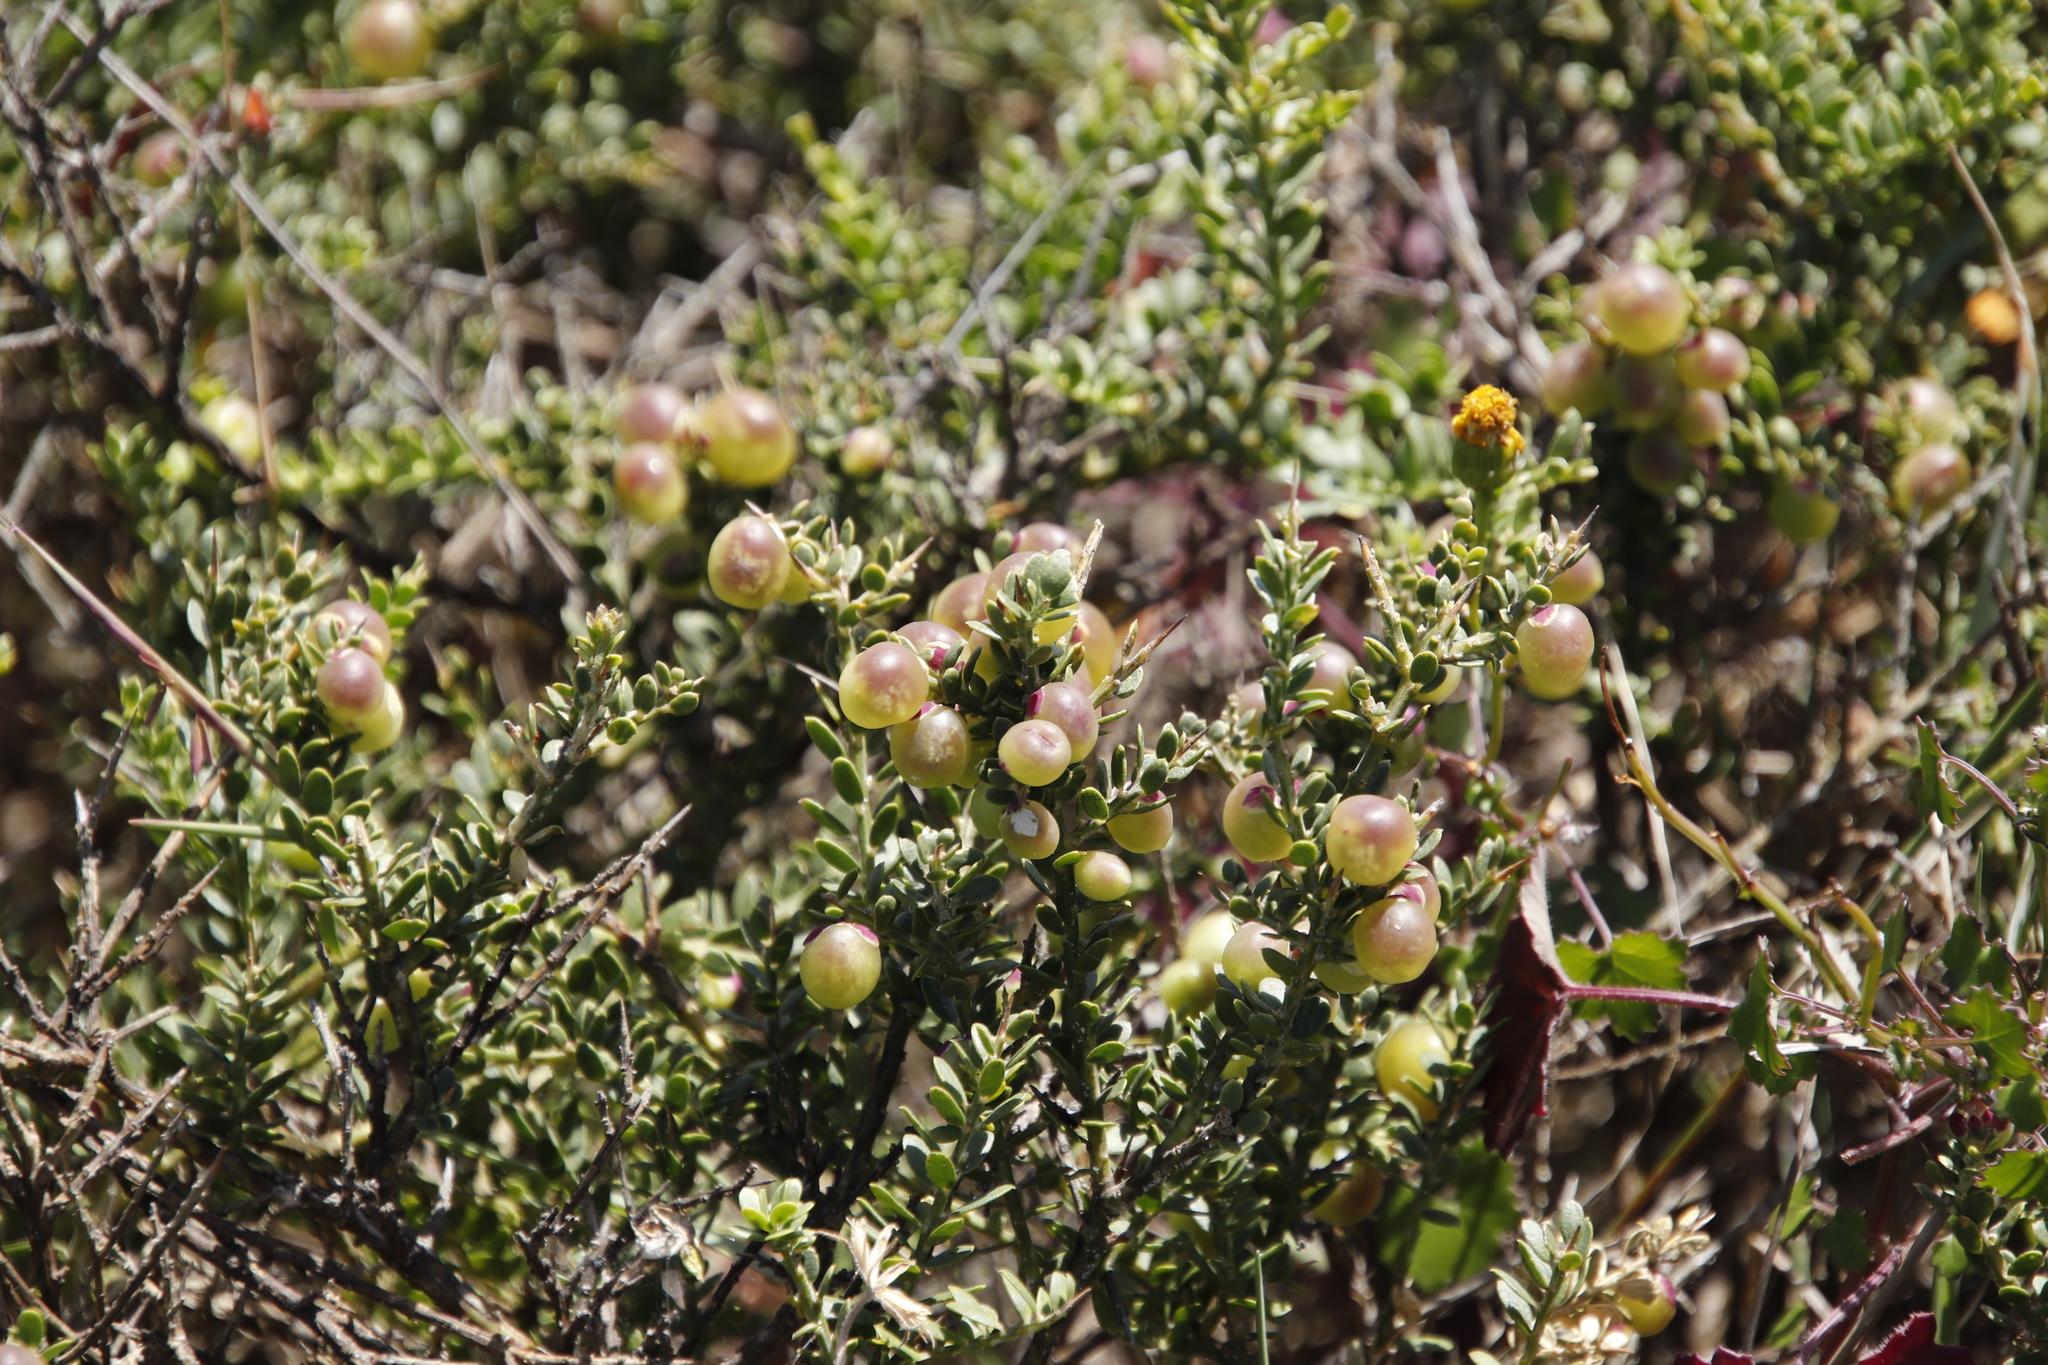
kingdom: Plantae
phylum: Tracheophyta
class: Magnoliopsida
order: Fabales
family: Polygalaceae
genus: Muraltia
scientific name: Muraltia spinosa
